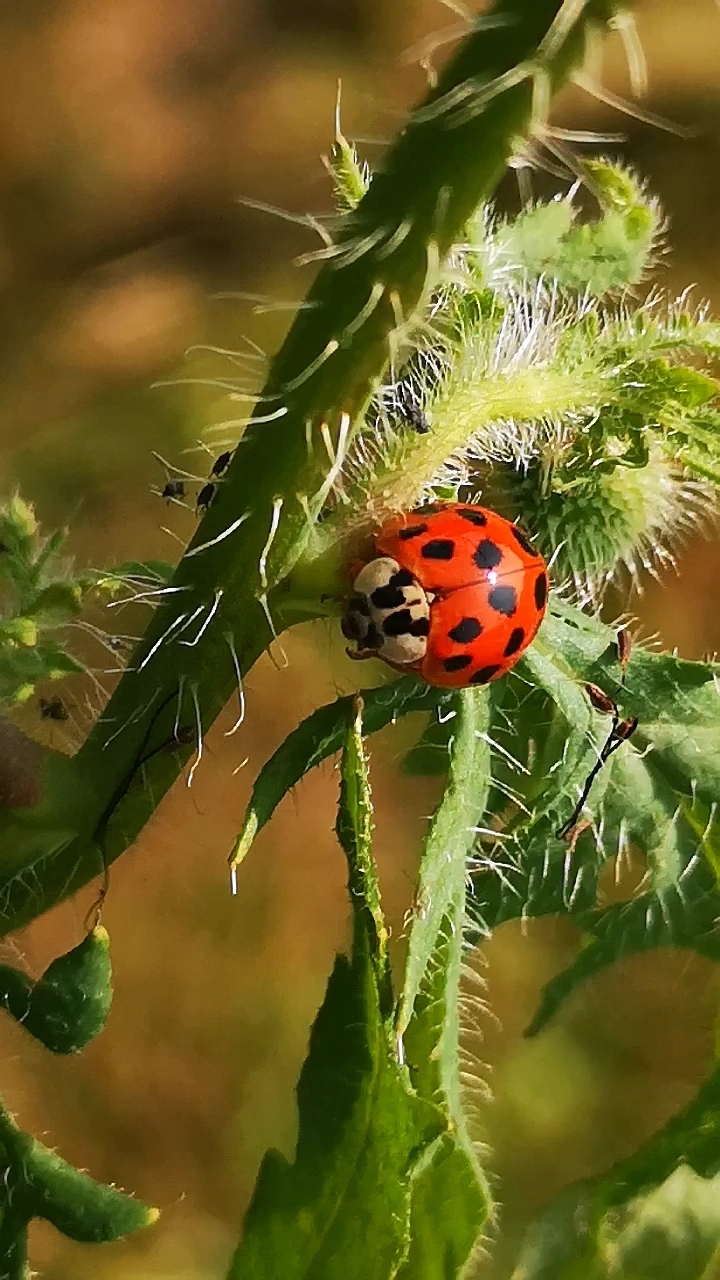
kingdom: Animalia
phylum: Arthropoda
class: Insecta
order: Coleoptera
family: Coccinellidae
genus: Harmonia
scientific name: Harmonia axyridis
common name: Harlequin ladybird
